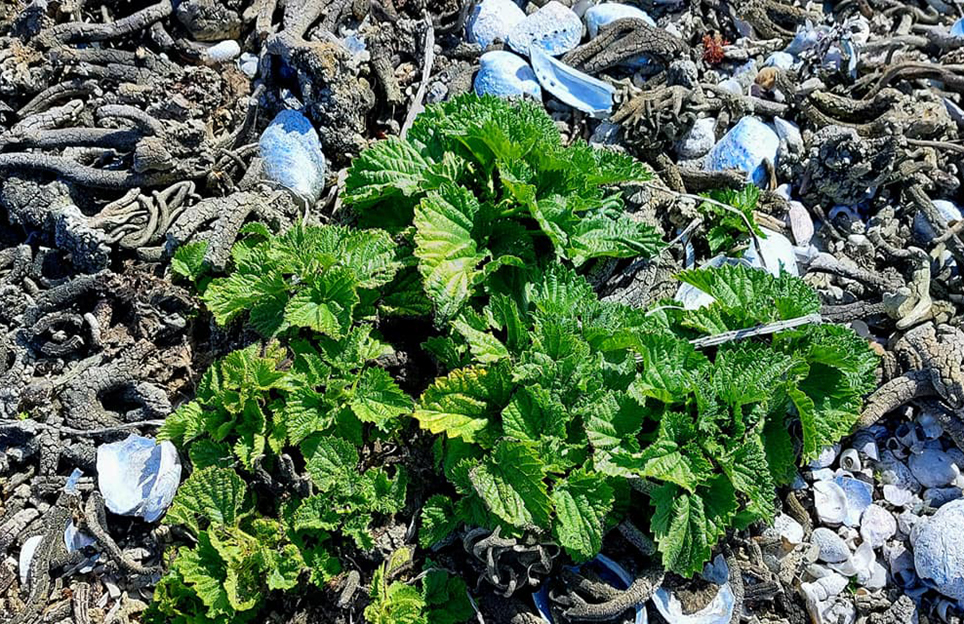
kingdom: Plantae
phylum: Tracheophyta
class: Magnoliopsida
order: Rosales
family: Urticaceae
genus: Urtica
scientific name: Urtica australis
